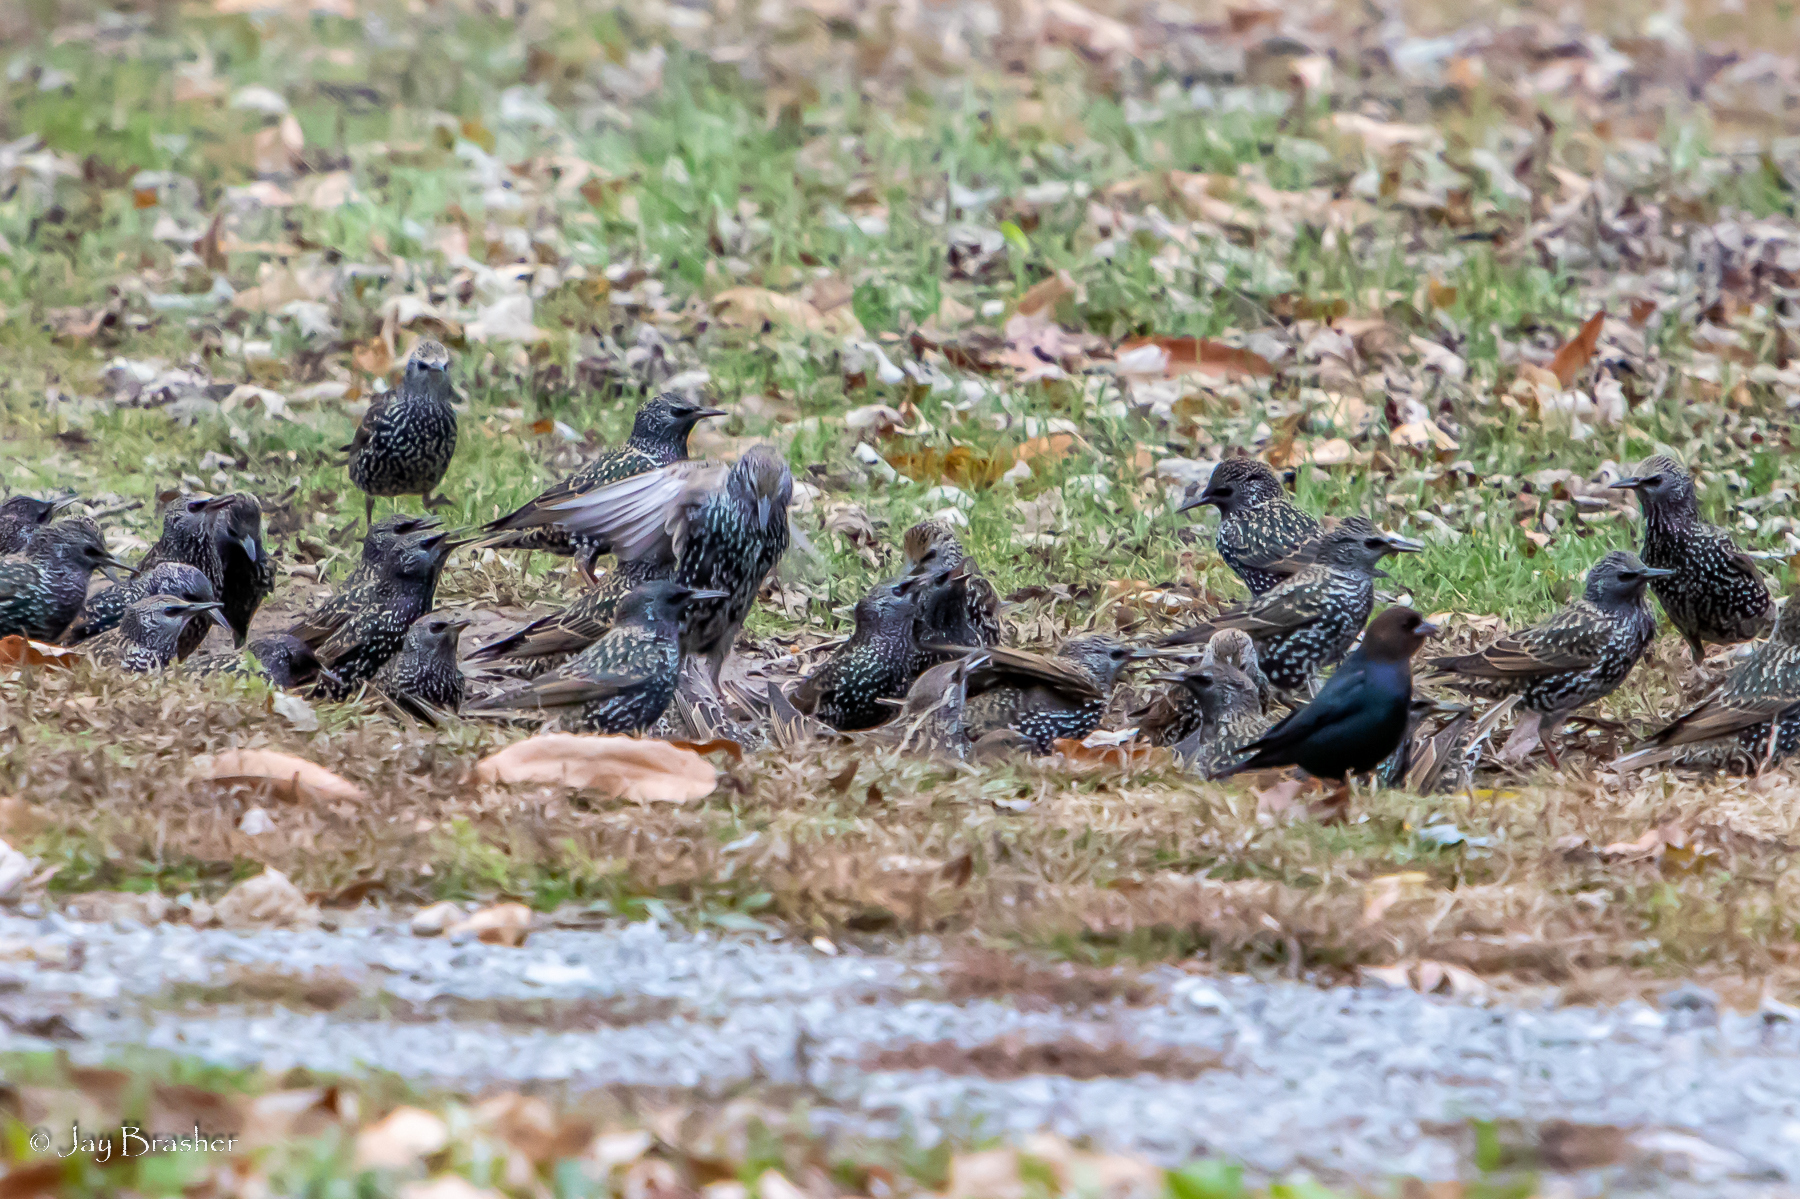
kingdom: Animalia
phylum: Chordata
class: Aves
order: Passeriformes
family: Sturnidae
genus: Sturnus
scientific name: Sturnus vulgaris
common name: Common starling
